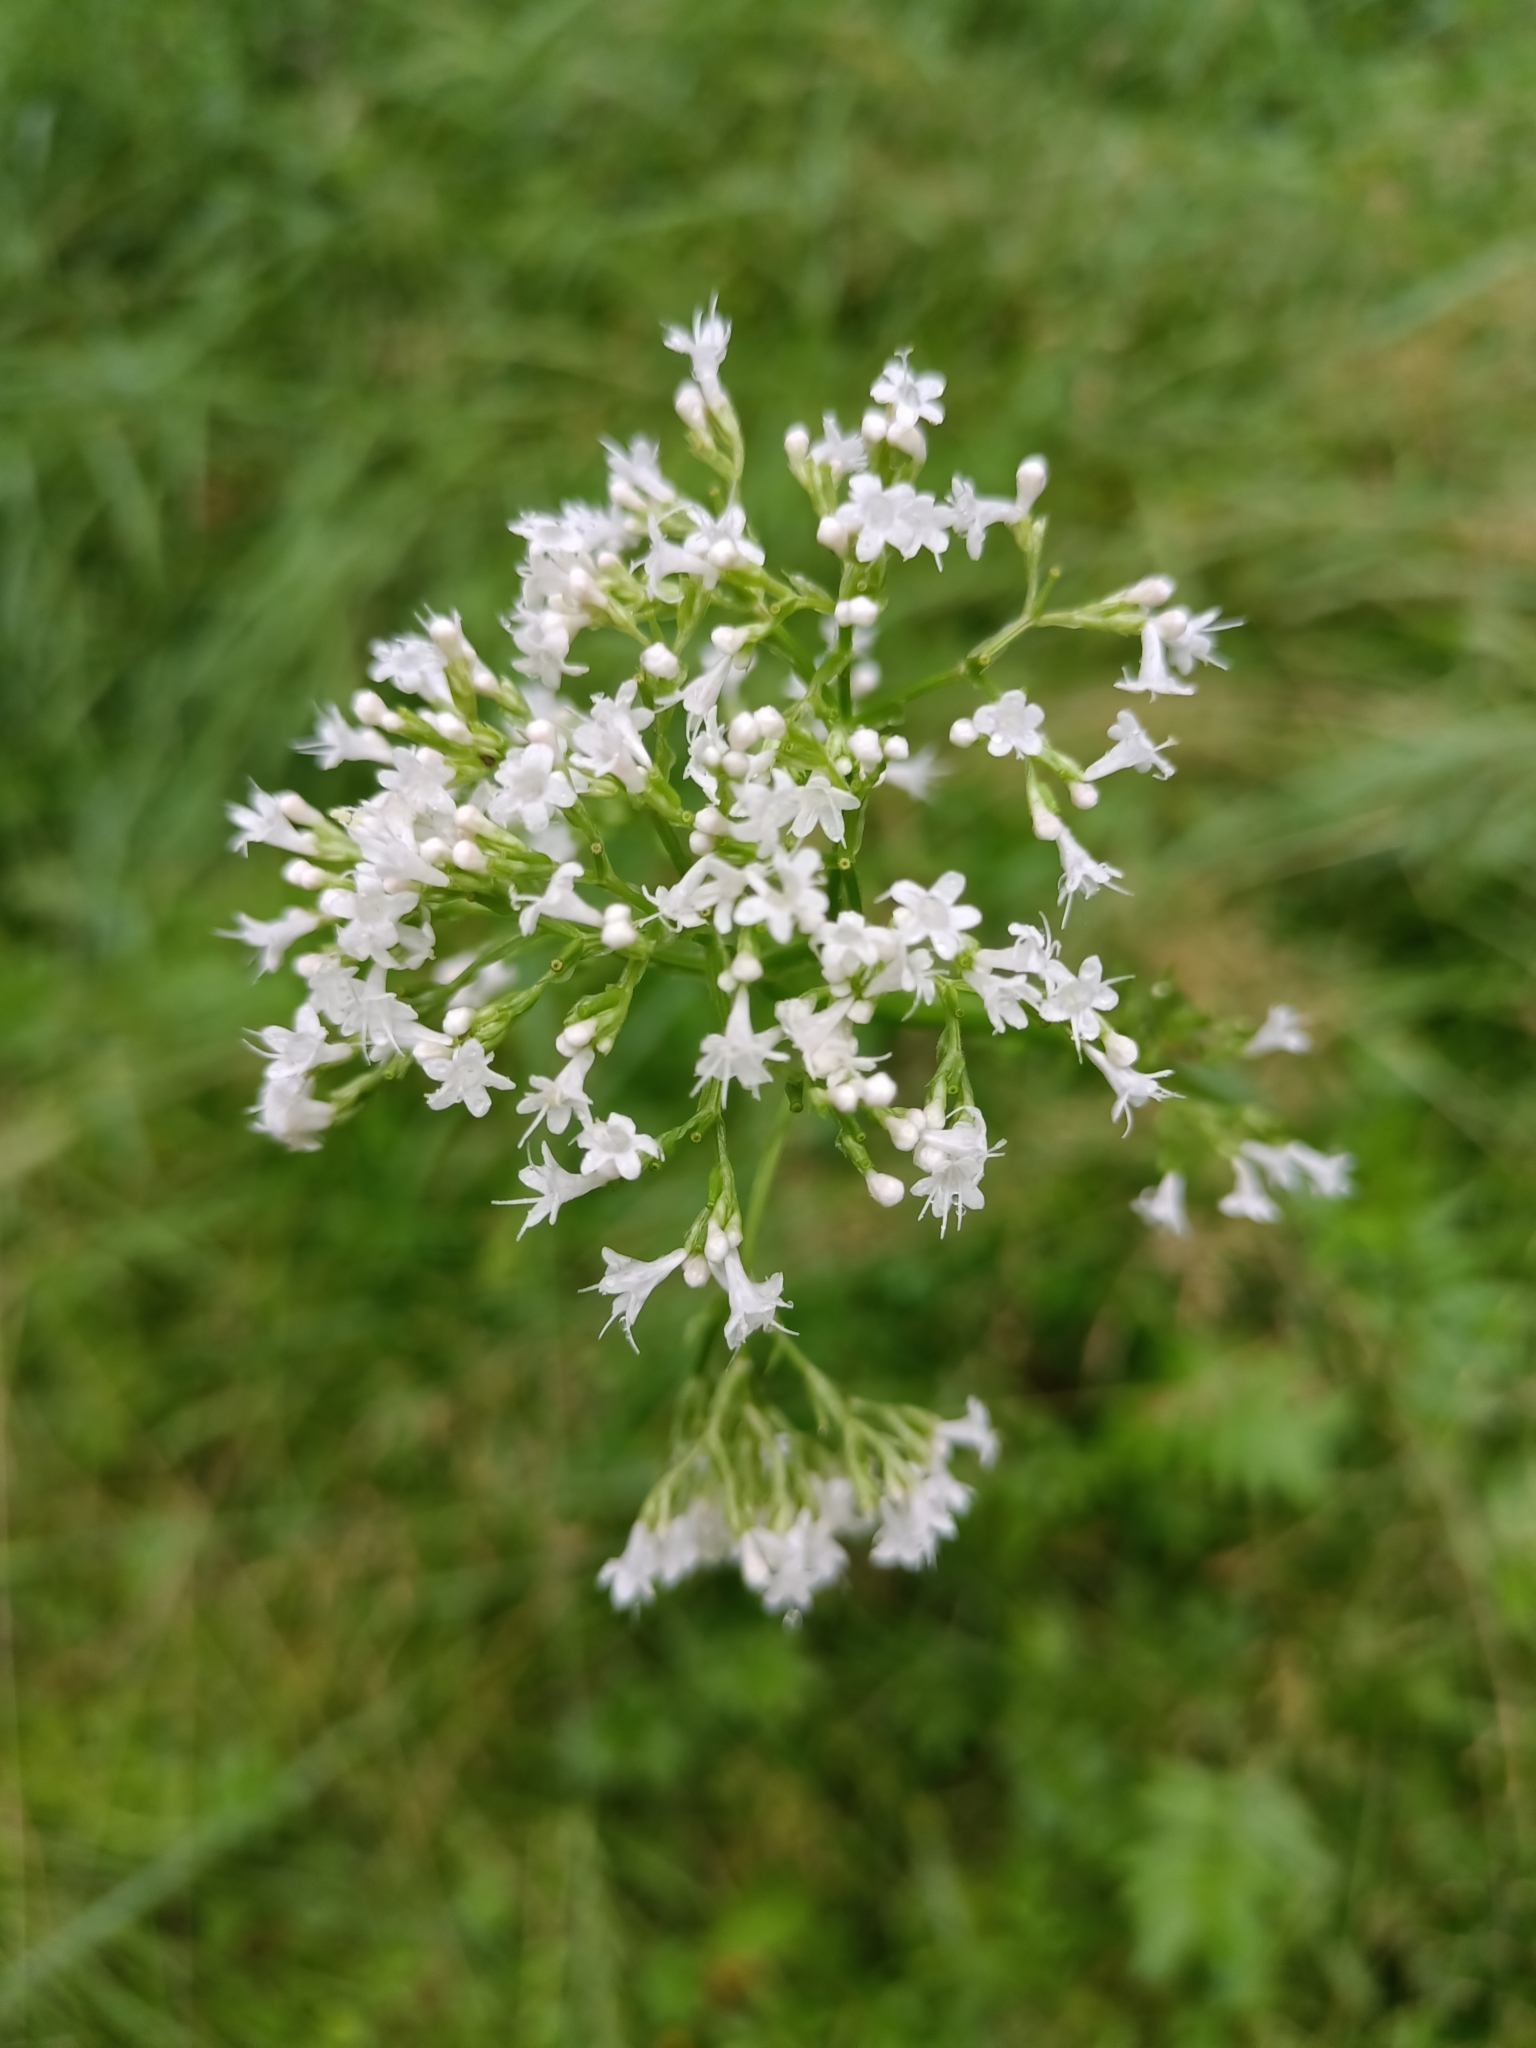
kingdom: Plantae
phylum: Tracheophyta
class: Magnoliopsida
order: Dipsacales
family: Caprifoliaceae
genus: Valeriana
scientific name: Valeriana officinalis
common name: Common valerian
